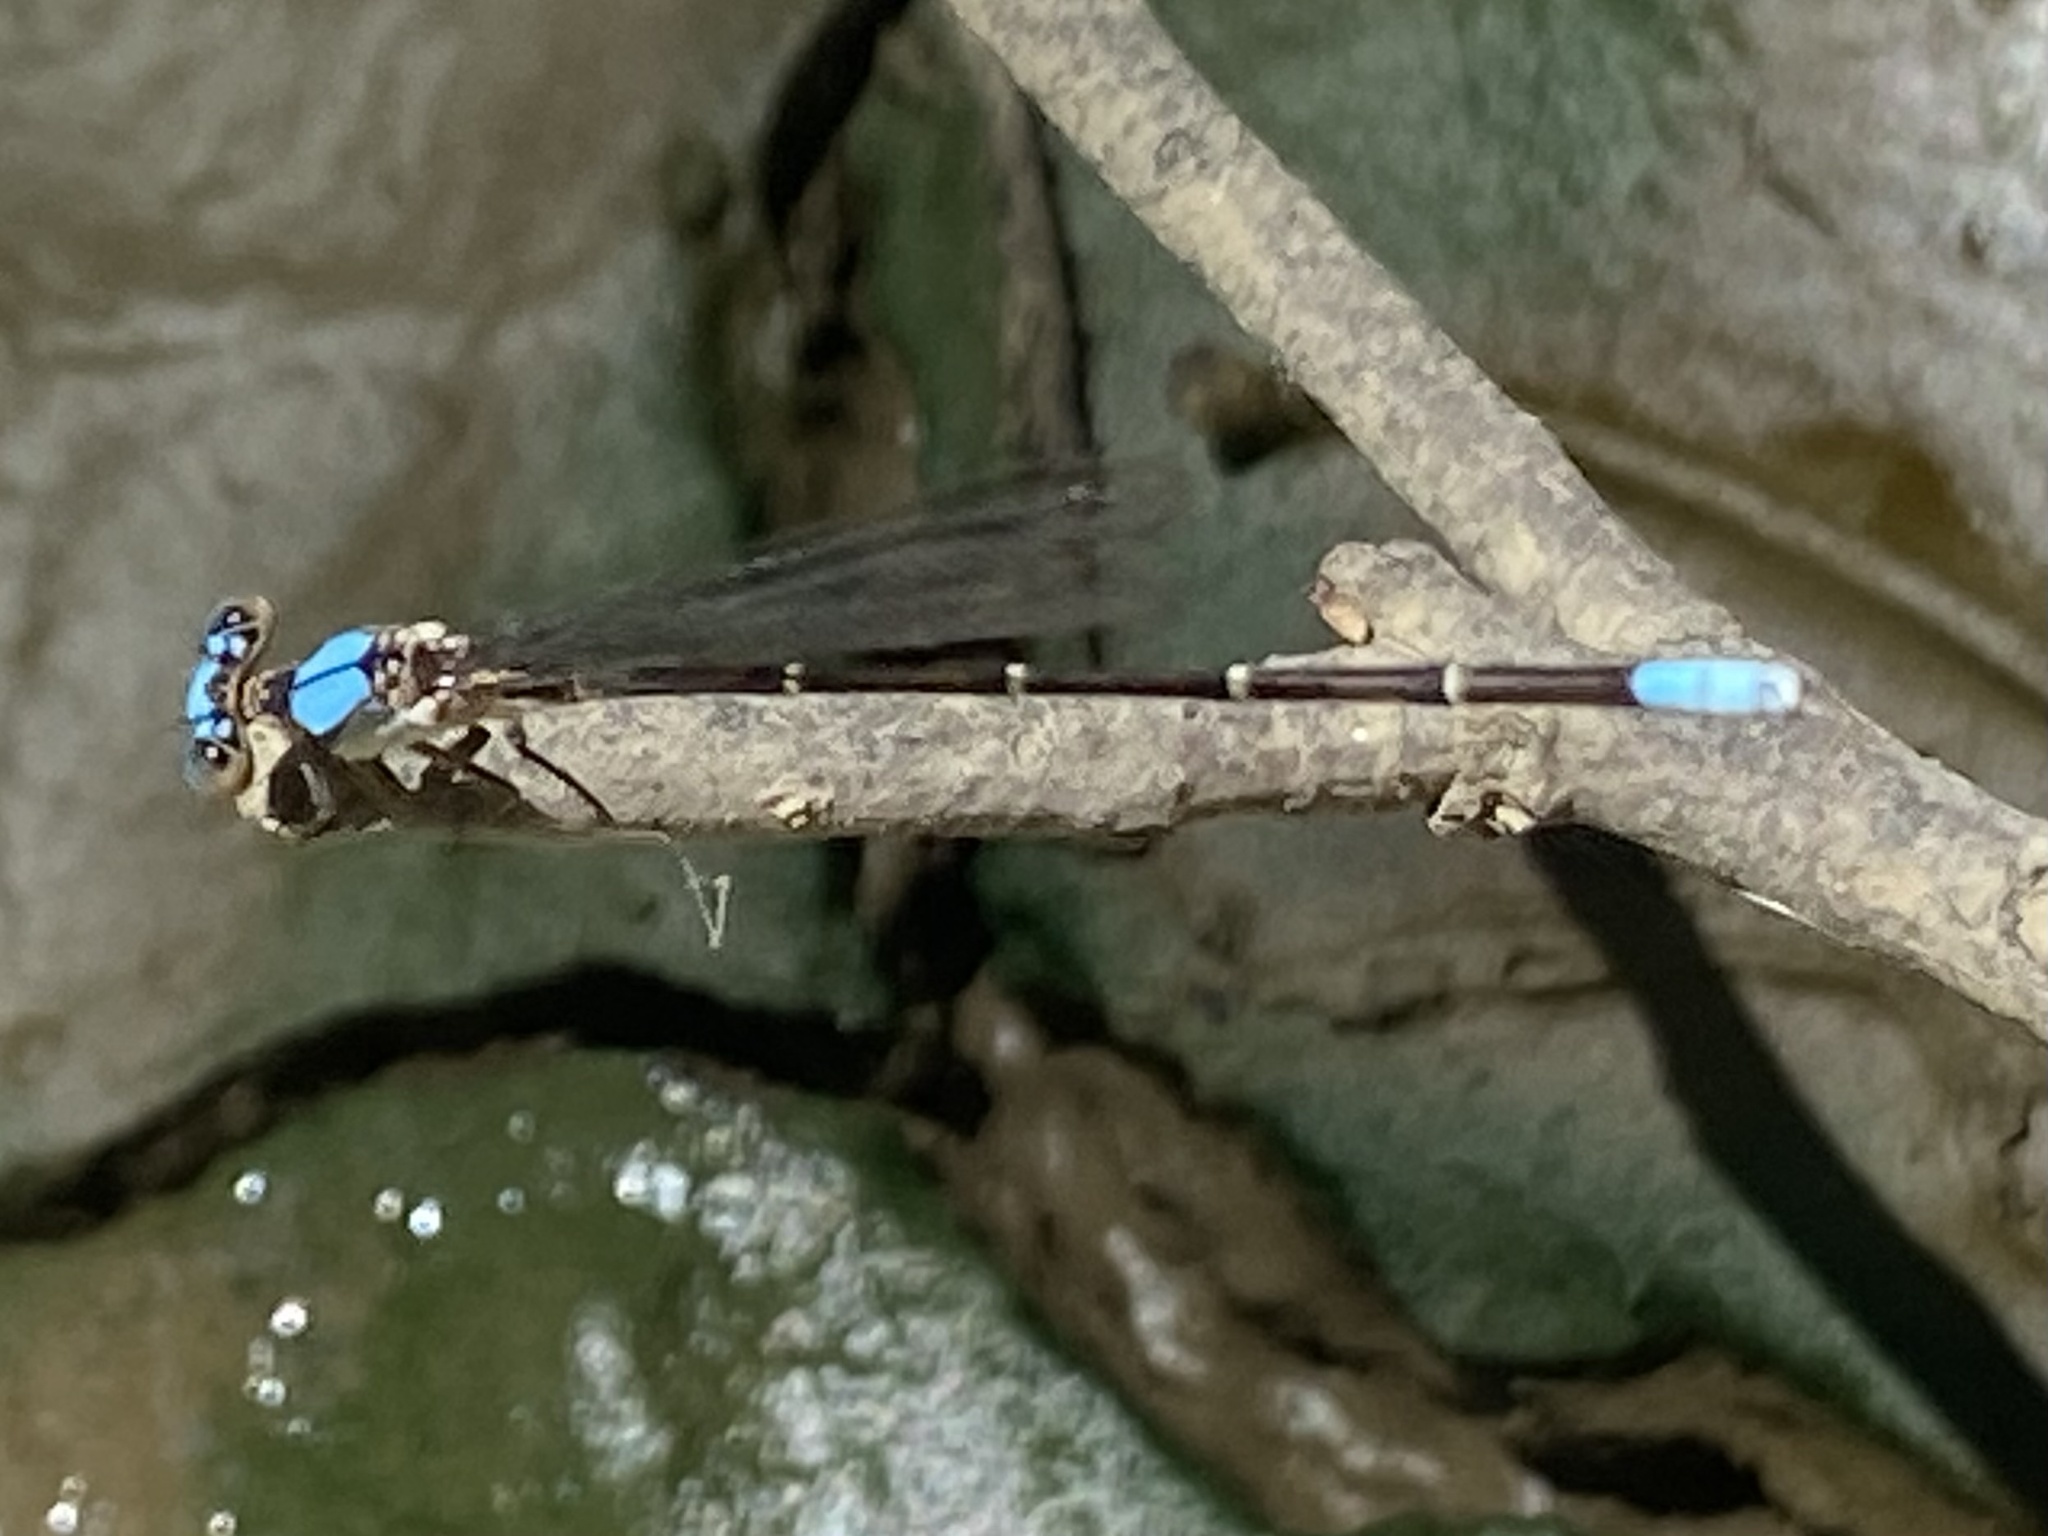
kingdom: Animalia
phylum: Arthropoda
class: Insecta
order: Odonata
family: Coenagrionidae
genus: Argia
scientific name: Argia apicalis
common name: Blue-fronted dancer
